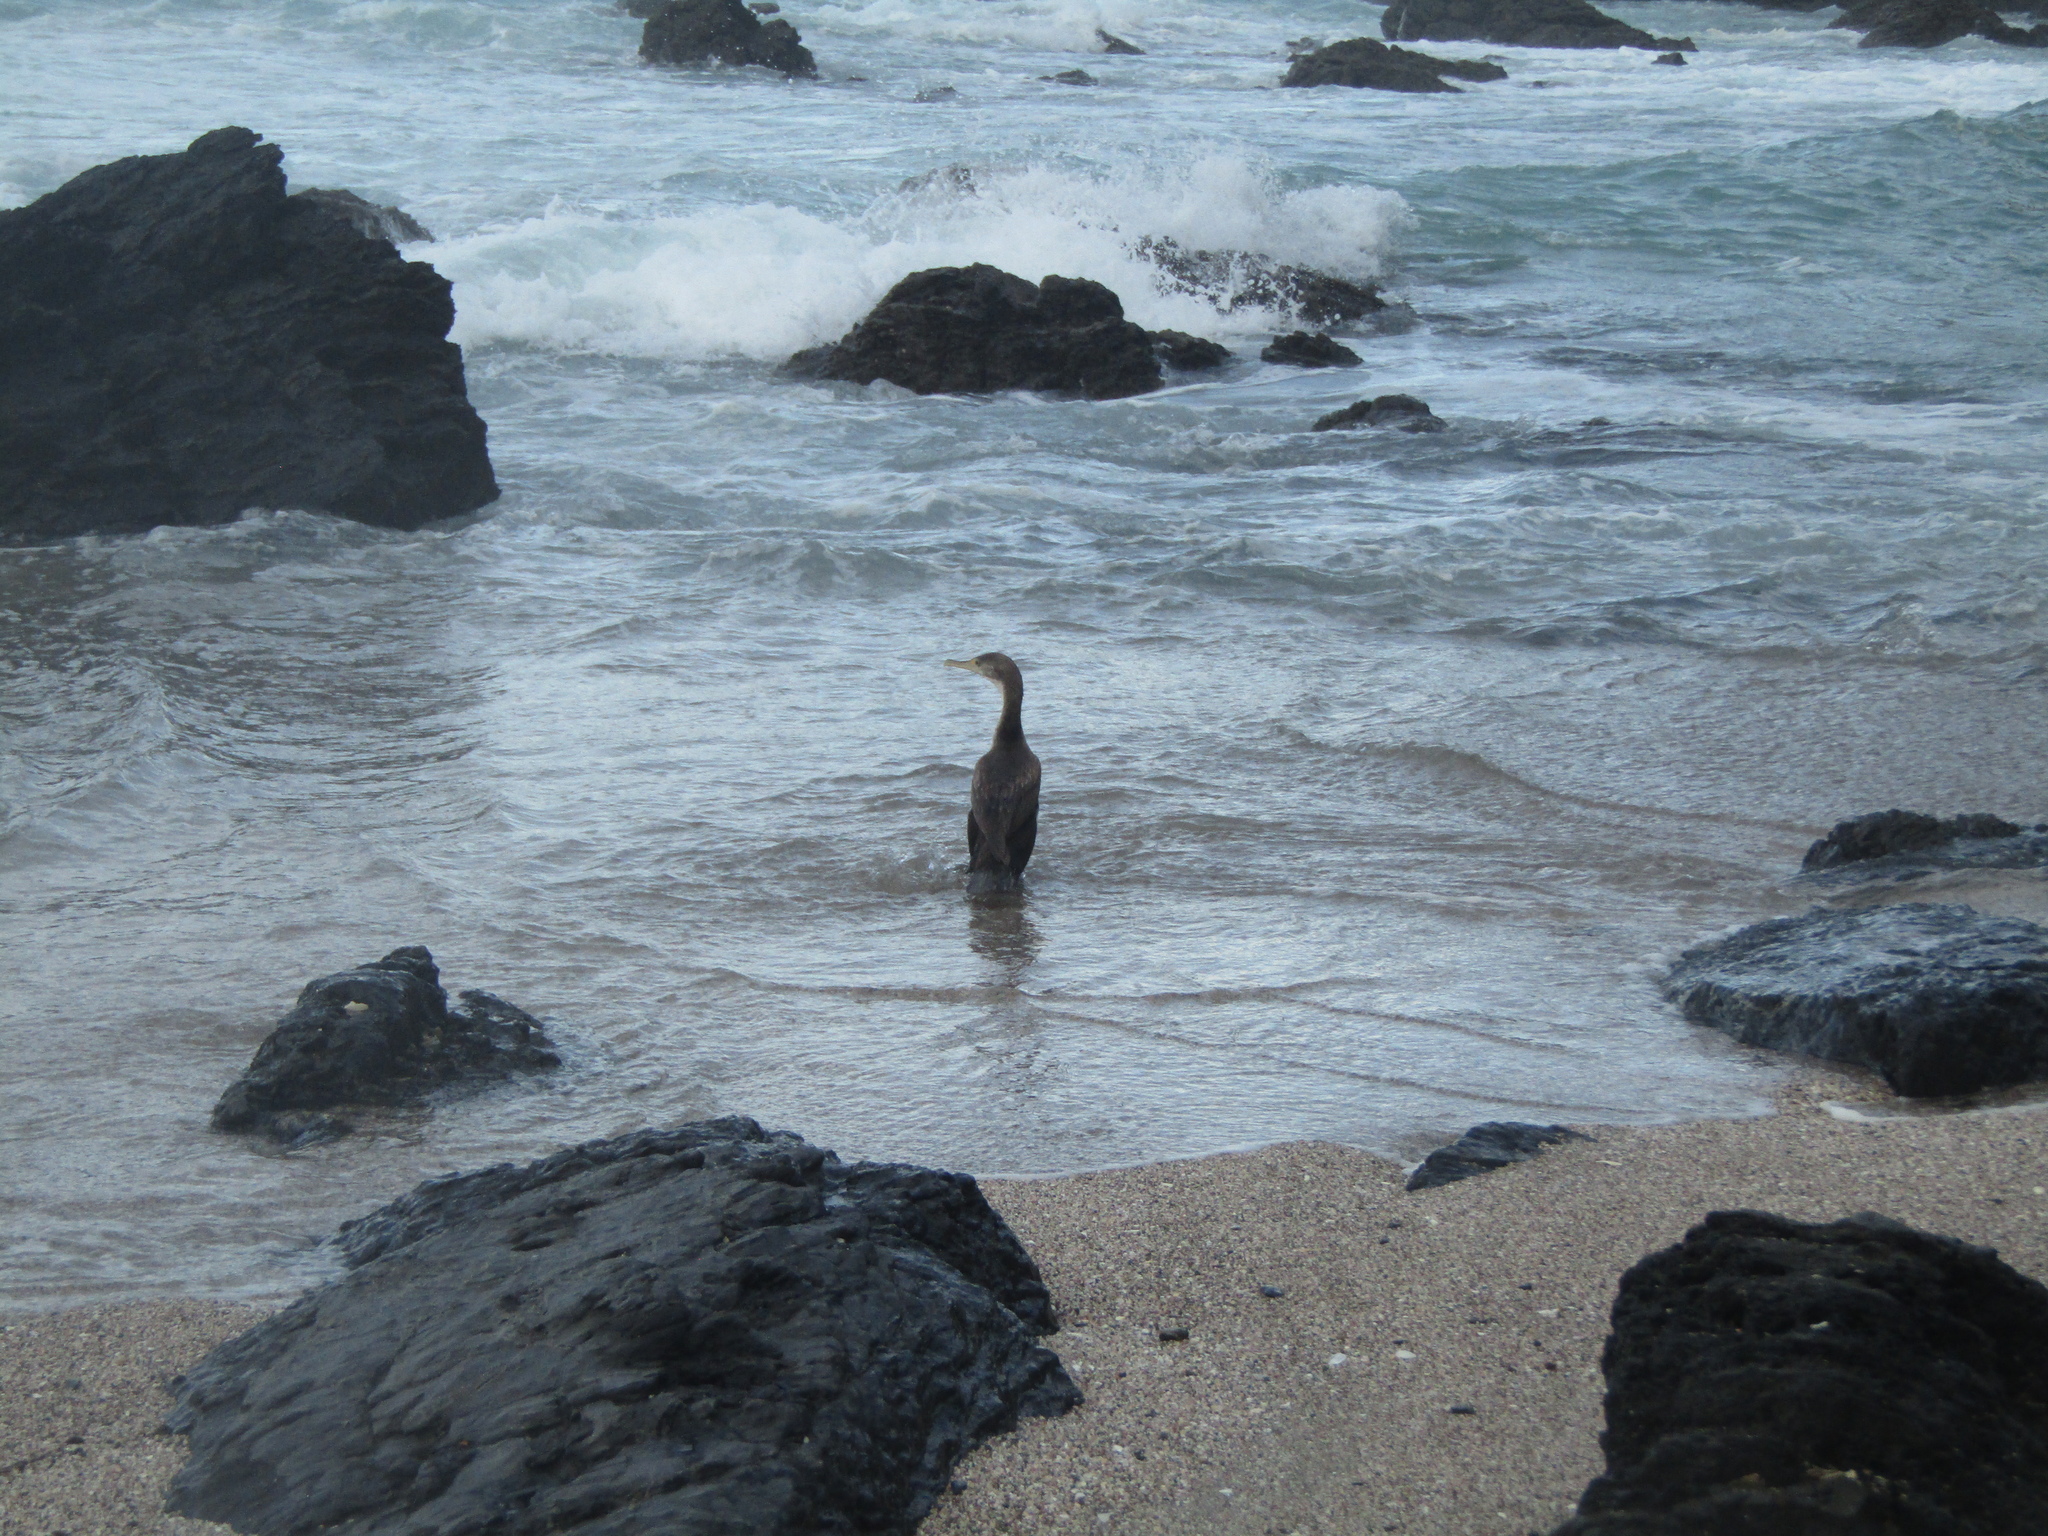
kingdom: Animalia
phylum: Chordata
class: Aves
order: Suliformes
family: Phalacrocoracidae
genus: Phalacrocorax
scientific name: Phalacrocorax varius
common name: Pied cormorant
